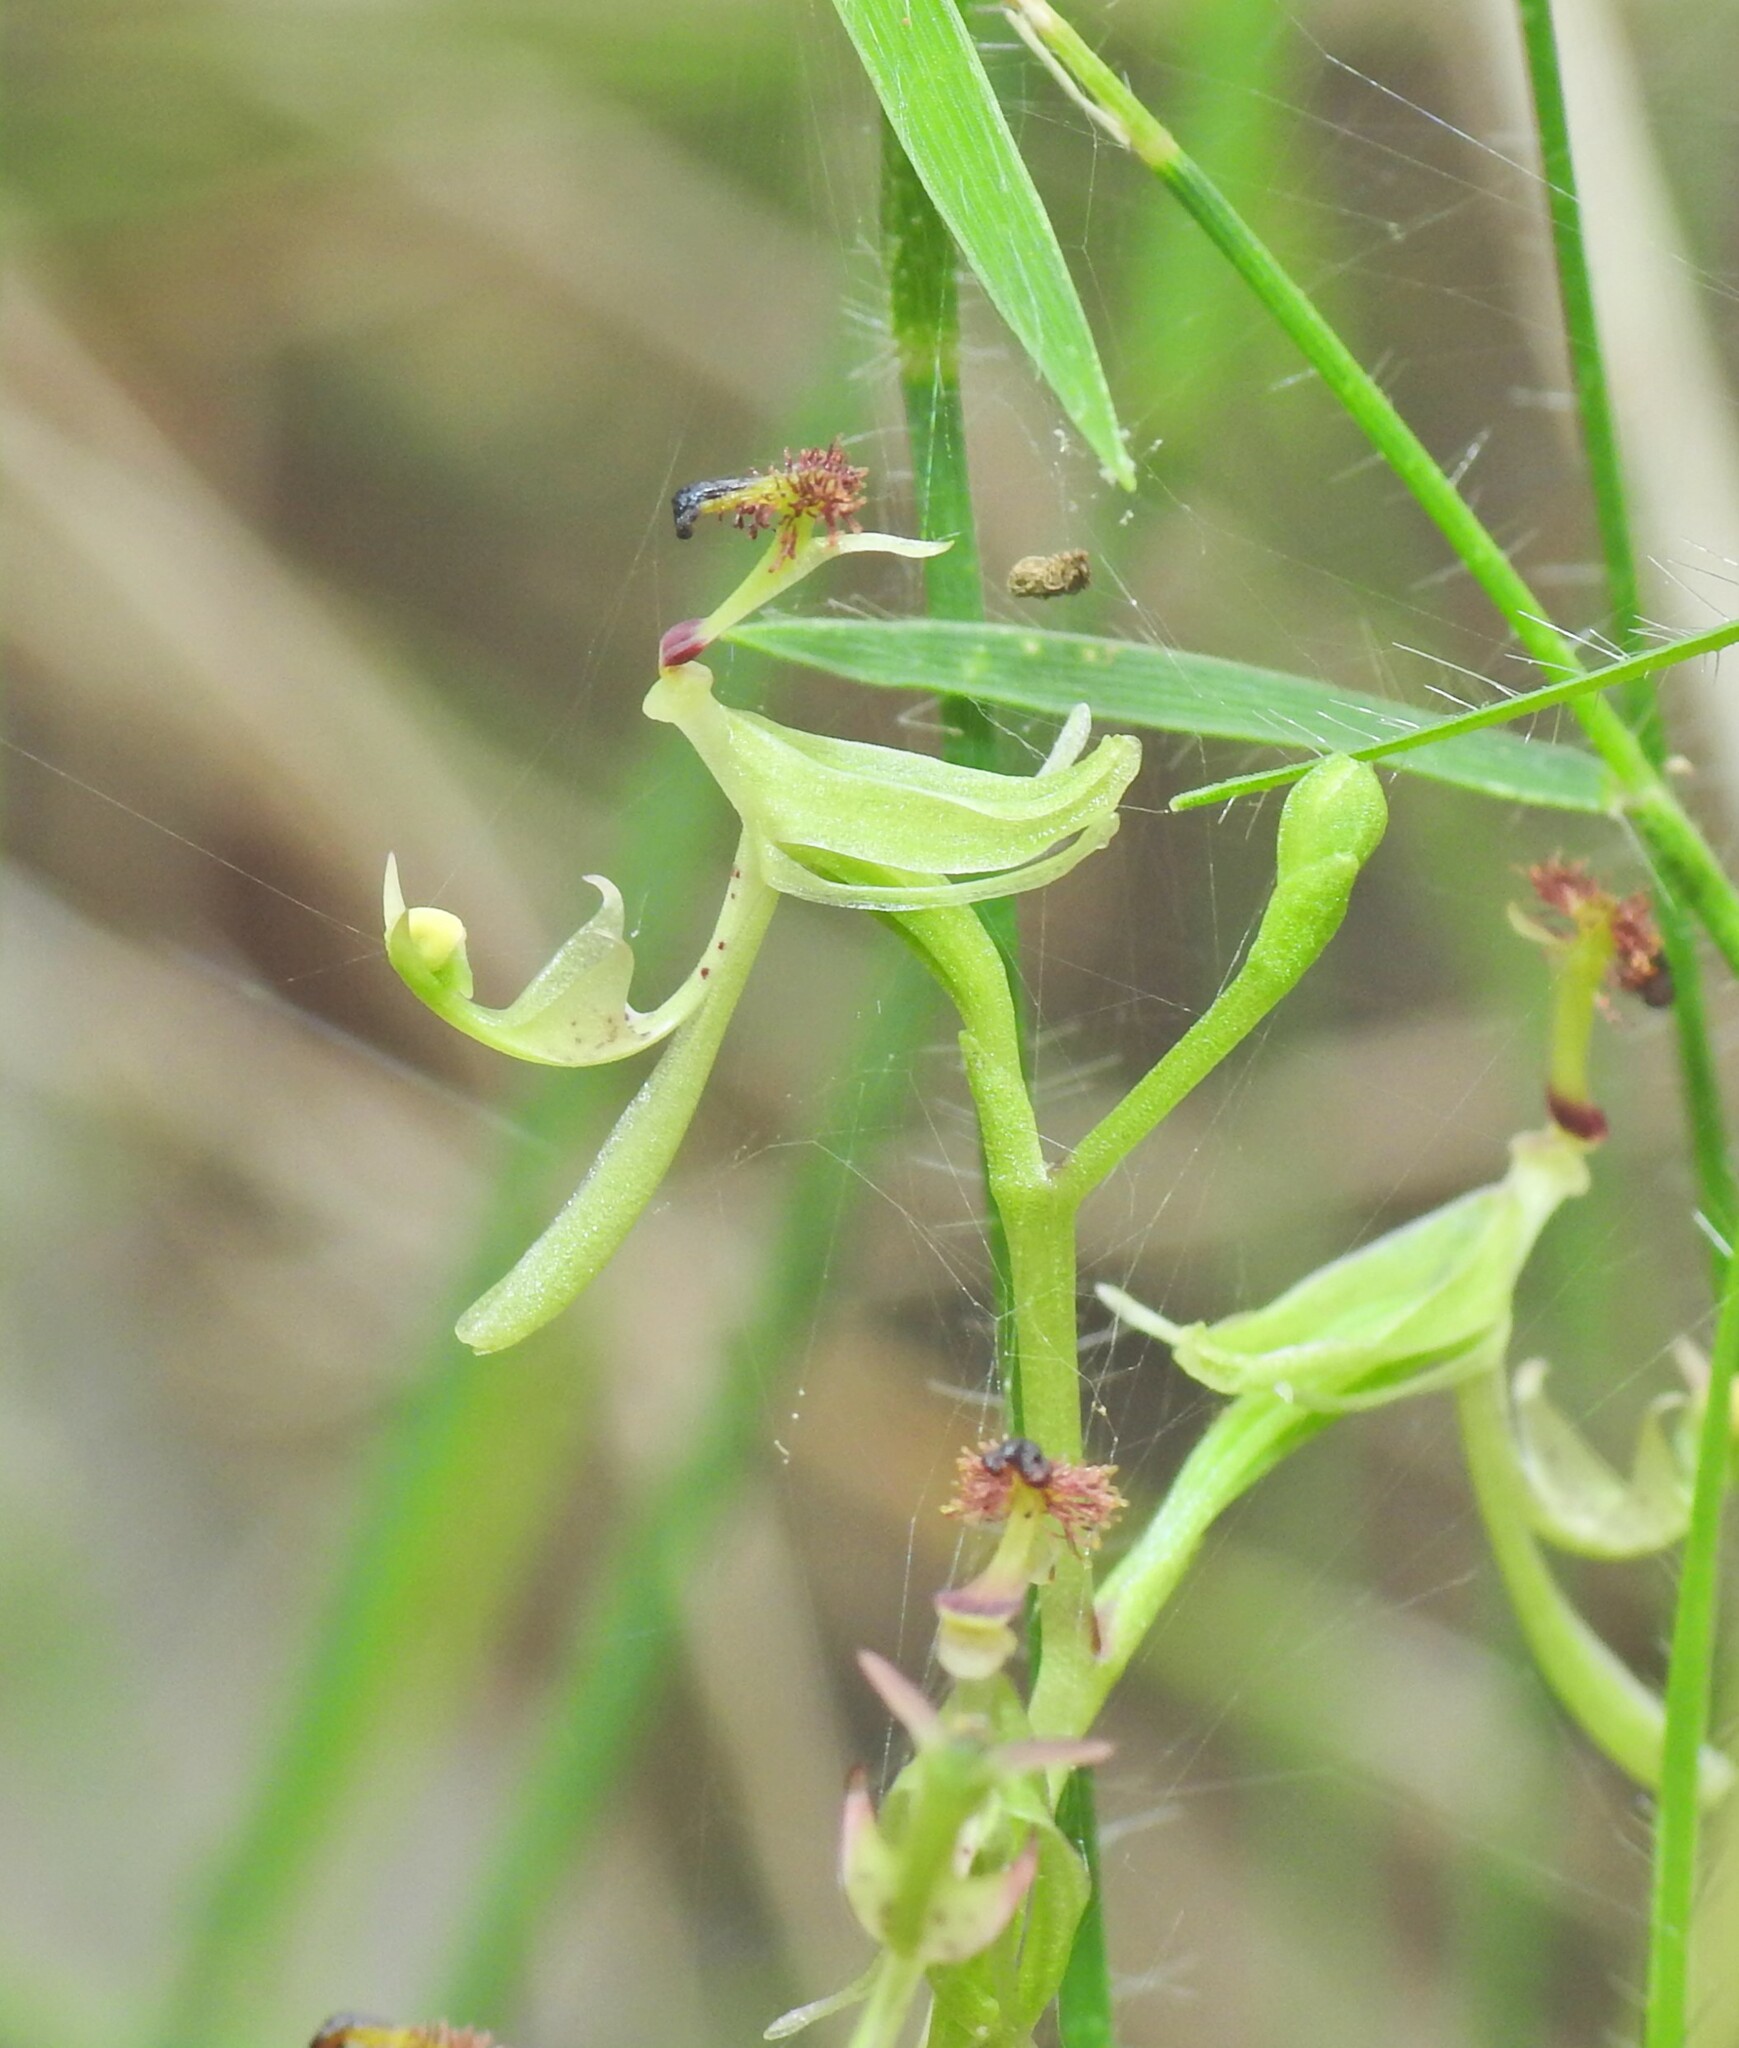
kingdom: Plantae
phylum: Tracheophyta
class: Liliopsida
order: Asparagales
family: Orchidaceae
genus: Arthrochilus
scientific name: Arthrochilus irritabilis
